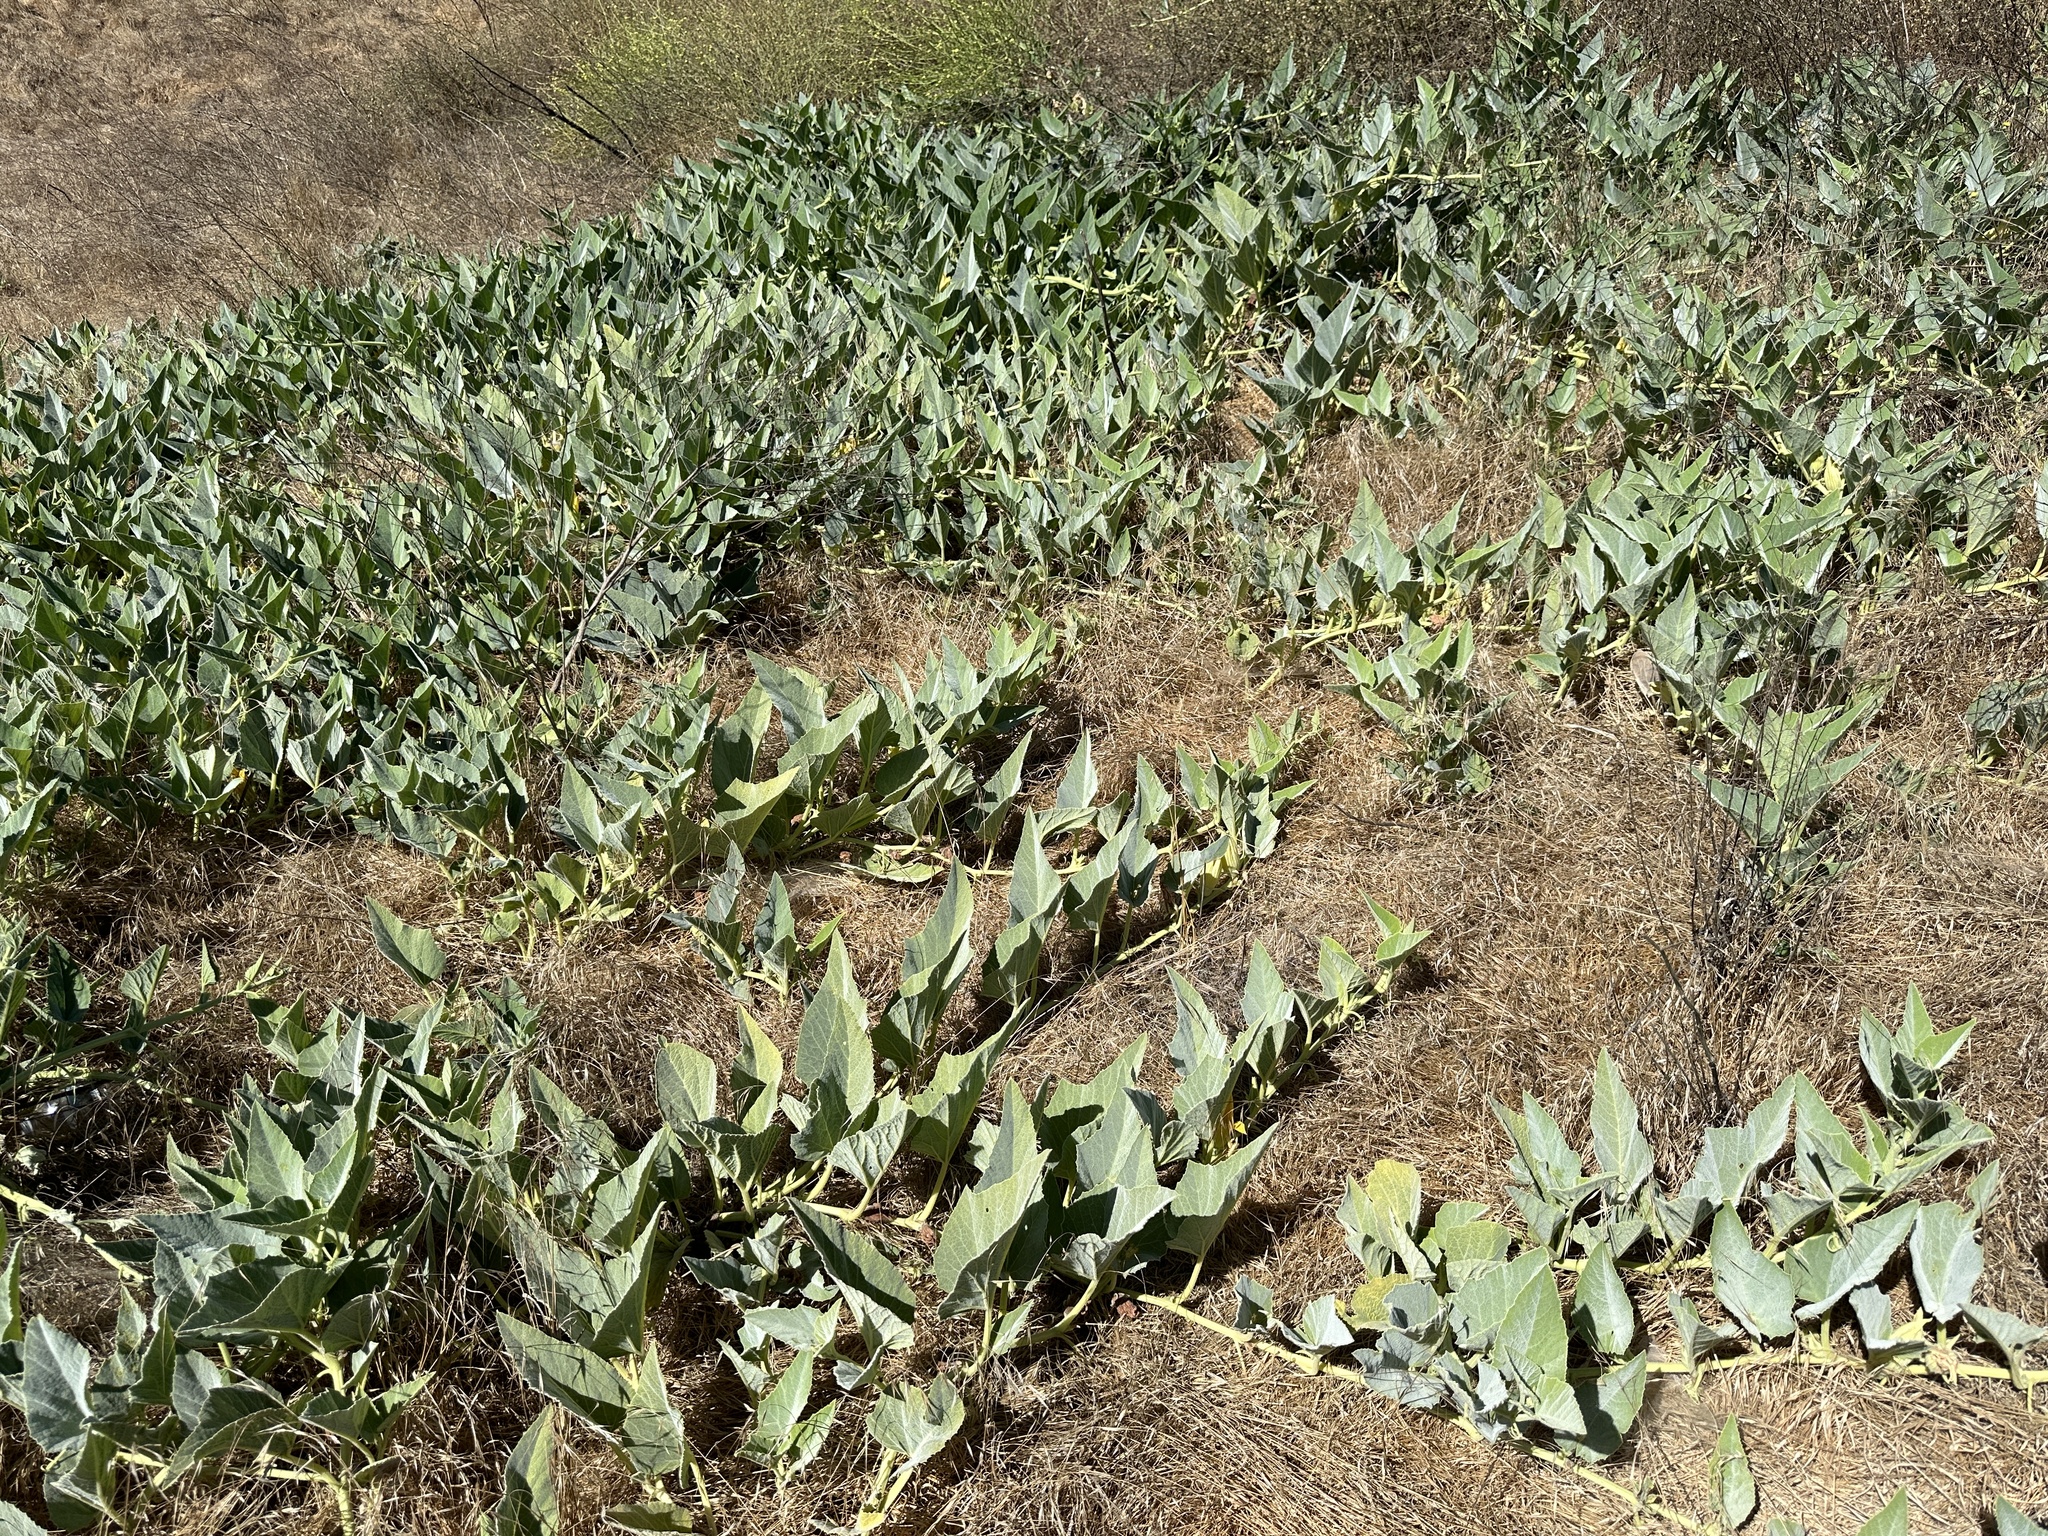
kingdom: Plantae
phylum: Tracheophyta
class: Magnoliopsida
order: Cucurbitales
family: Cucurbitaceae
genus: Cucurbita
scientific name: Cucurbita foetidissima
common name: Buffalo gourd
